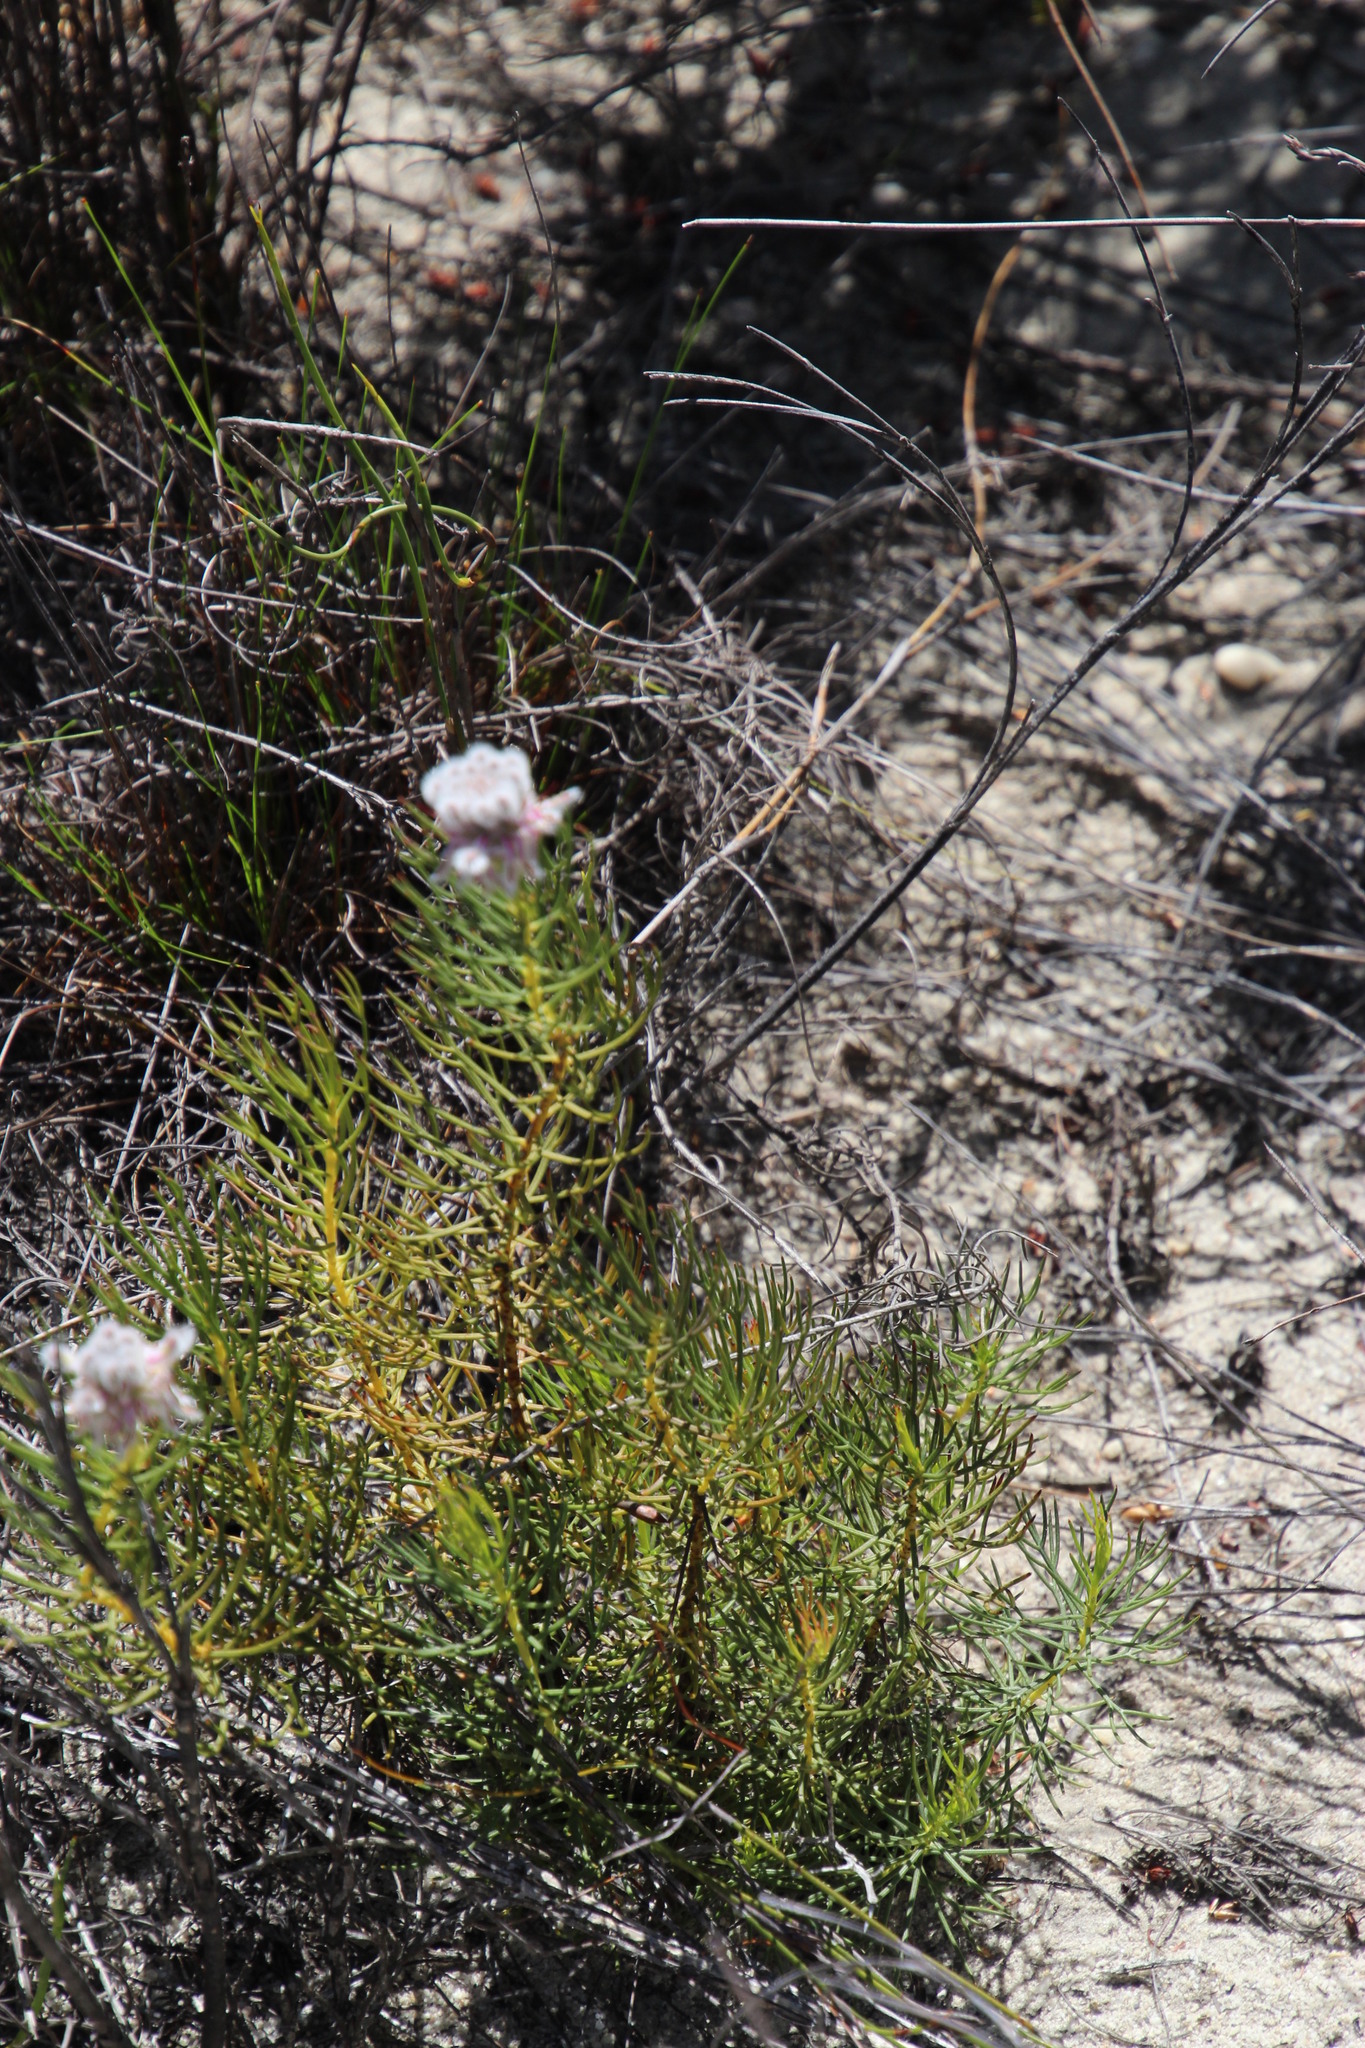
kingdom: Plantae
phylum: Tracheophyta
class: Magnoliopsida
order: Proteales
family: Proteaceae
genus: Serruria
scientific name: Serruria
